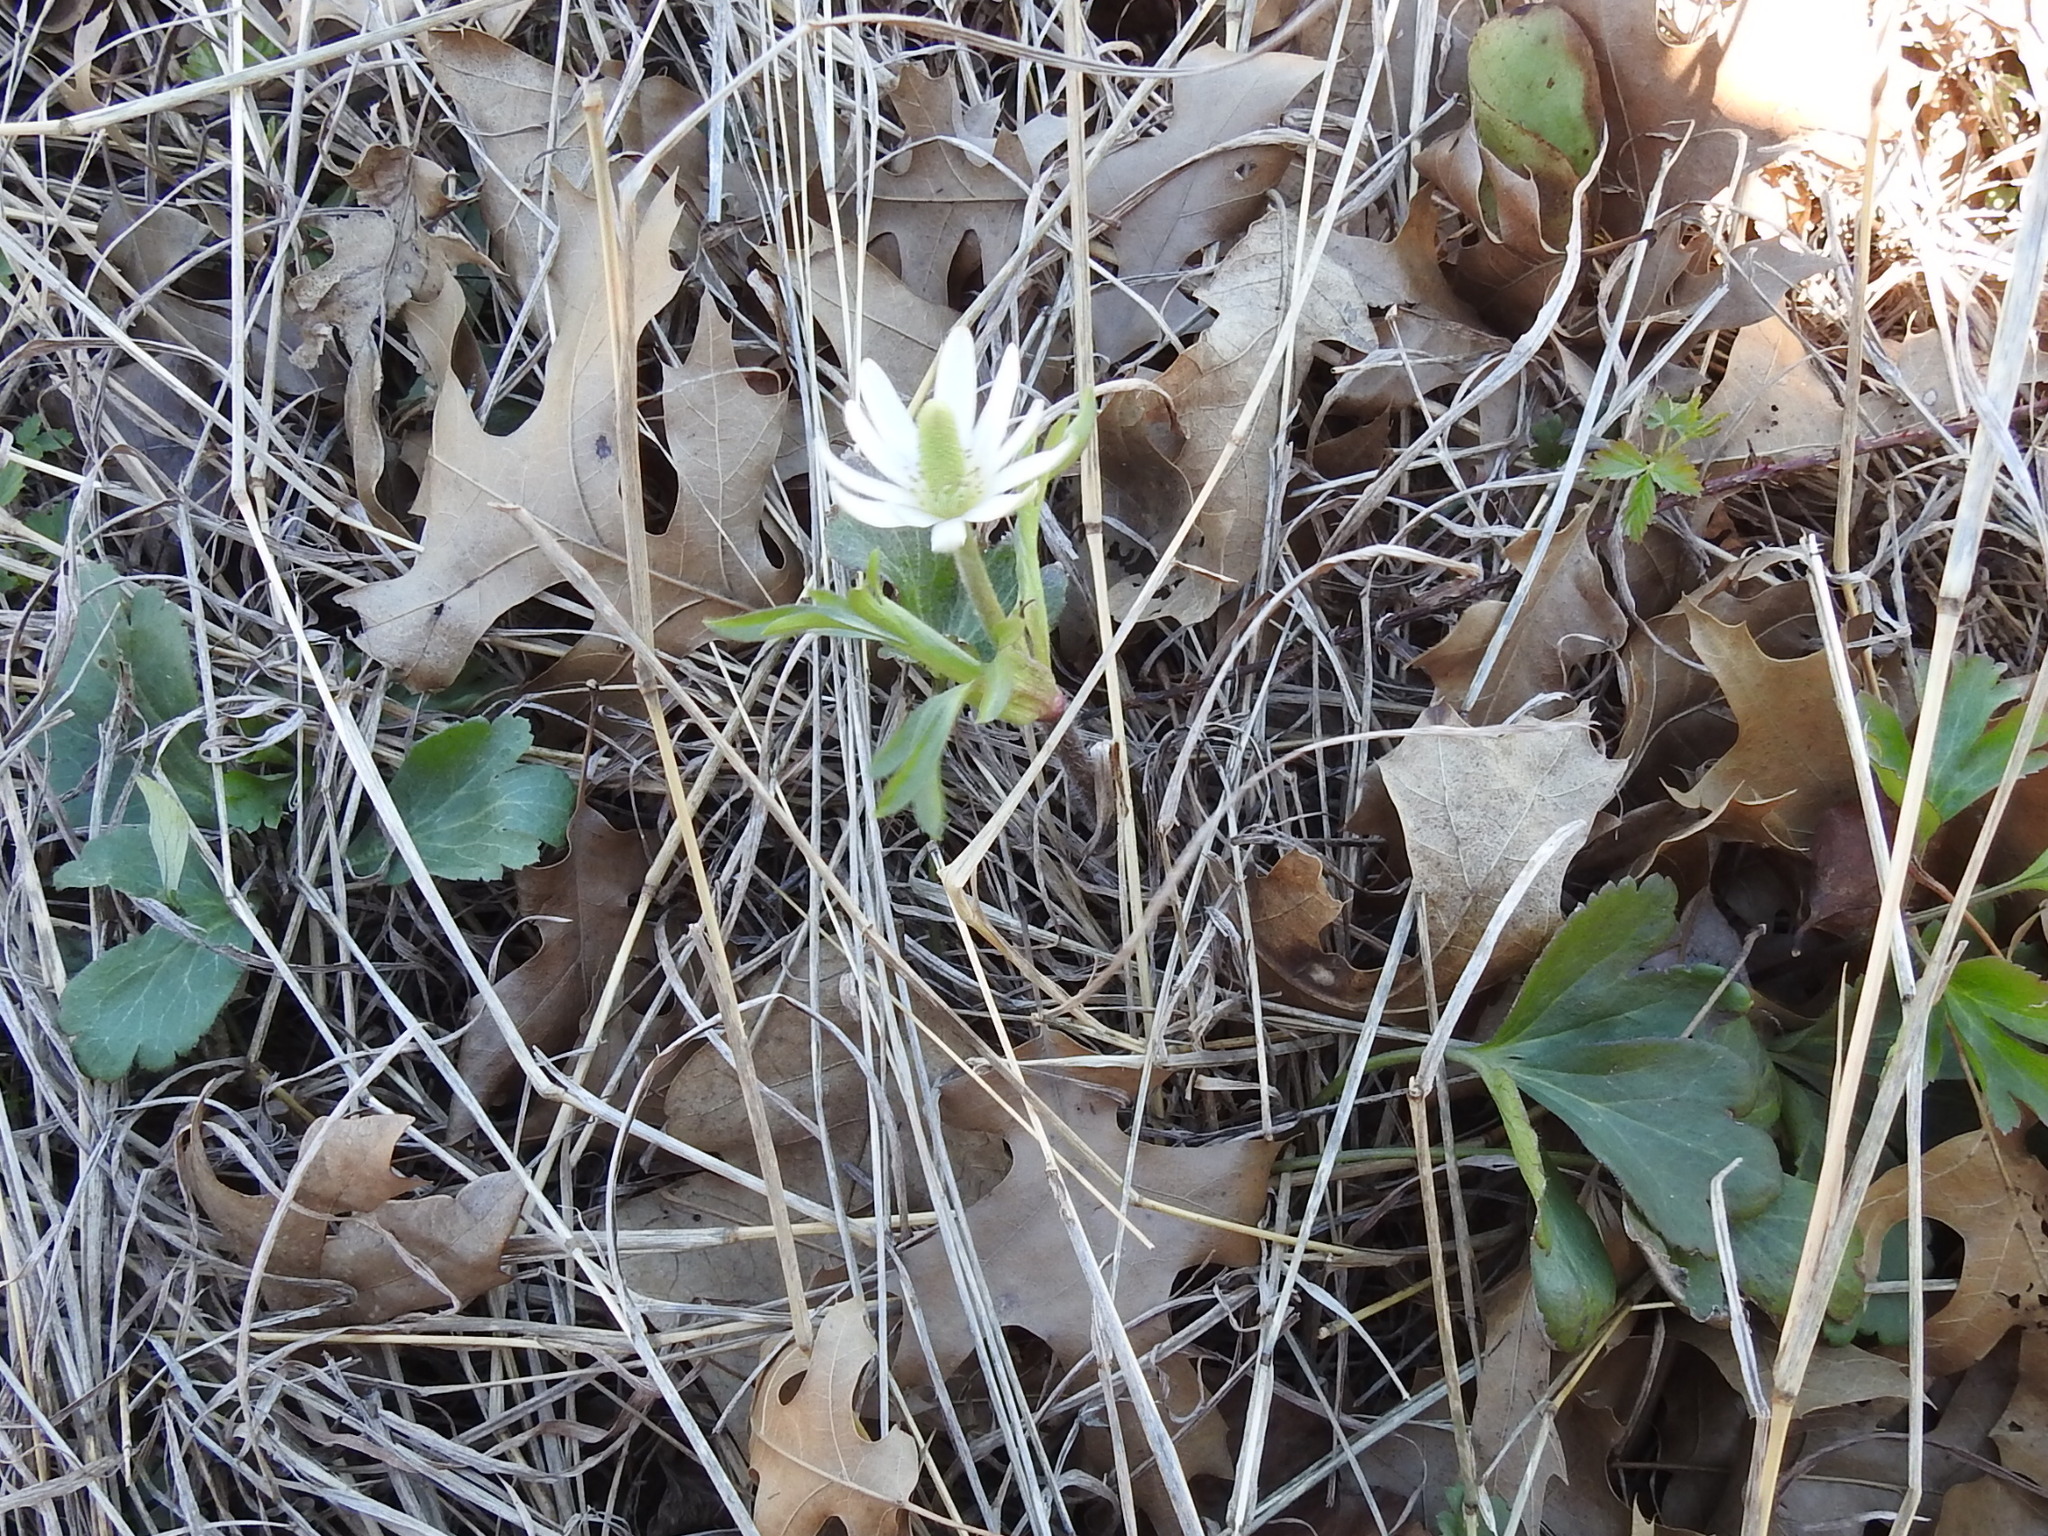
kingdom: Plantae
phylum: Tracheophyta
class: Magnoliopsida
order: Ranunculales
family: Ranunculaceae
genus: Anemone
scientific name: Anemone berlandieri
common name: Ten-petal anemone
